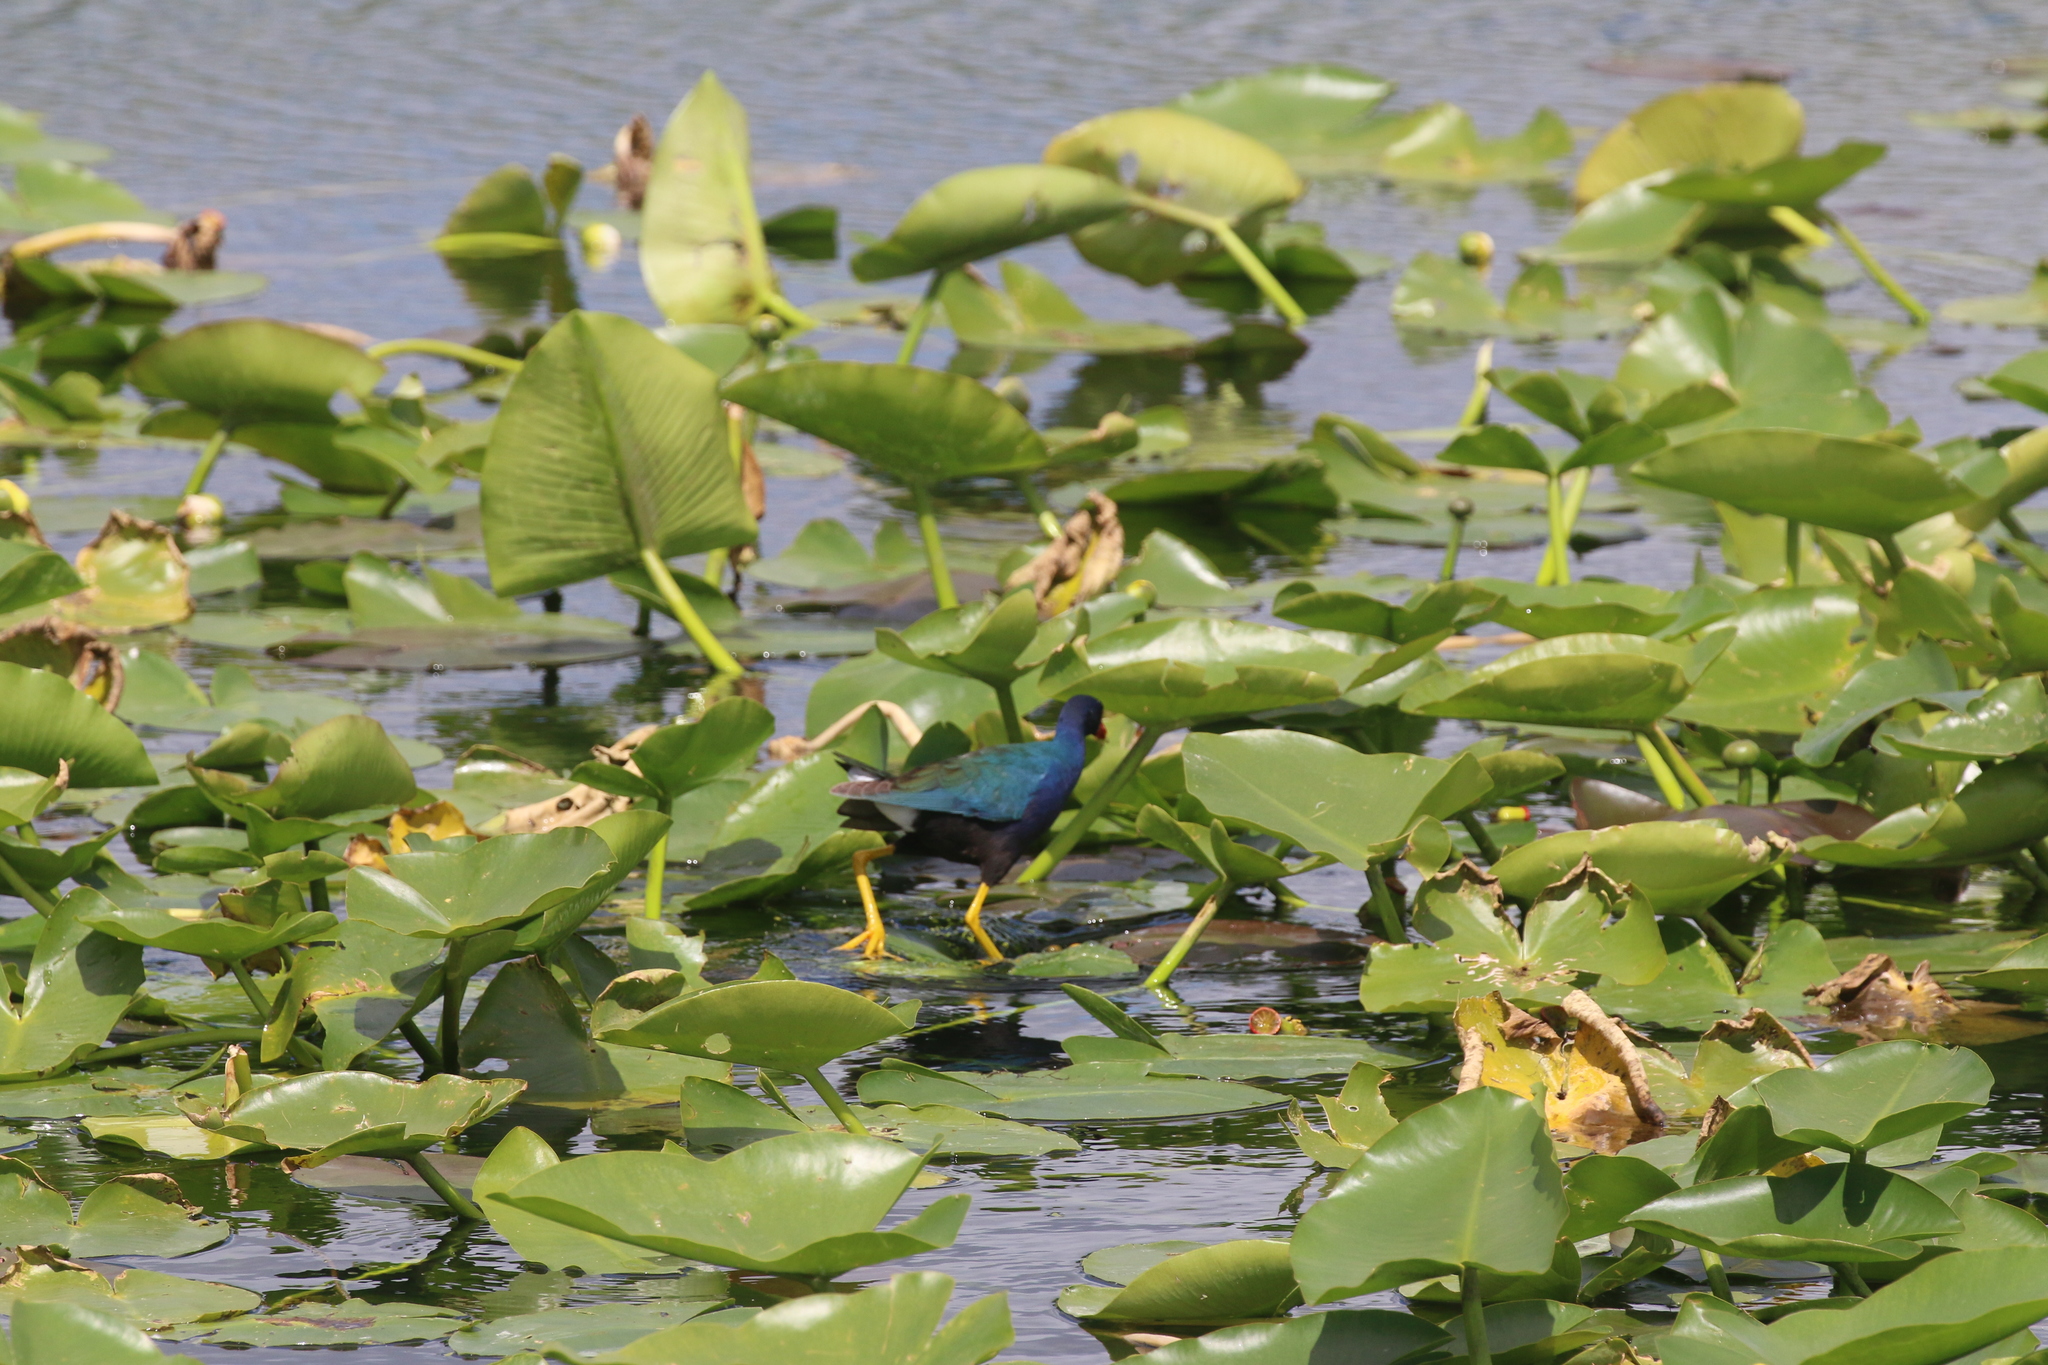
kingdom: Animalia
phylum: Chordata
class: Aves
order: Gruiformes
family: Rallidae
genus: Porphyrio
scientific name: Porphyrio martinica
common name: Purple gallinule
